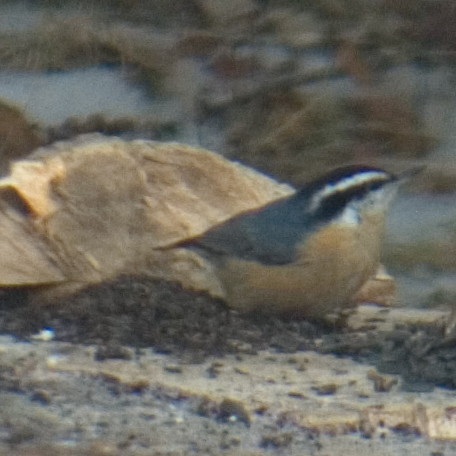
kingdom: Animalia
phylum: Chordata
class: Aves
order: Passeriformes
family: Sittidae
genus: Sitta
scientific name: Sitta canadensis
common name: Red-breasted nuthatch
